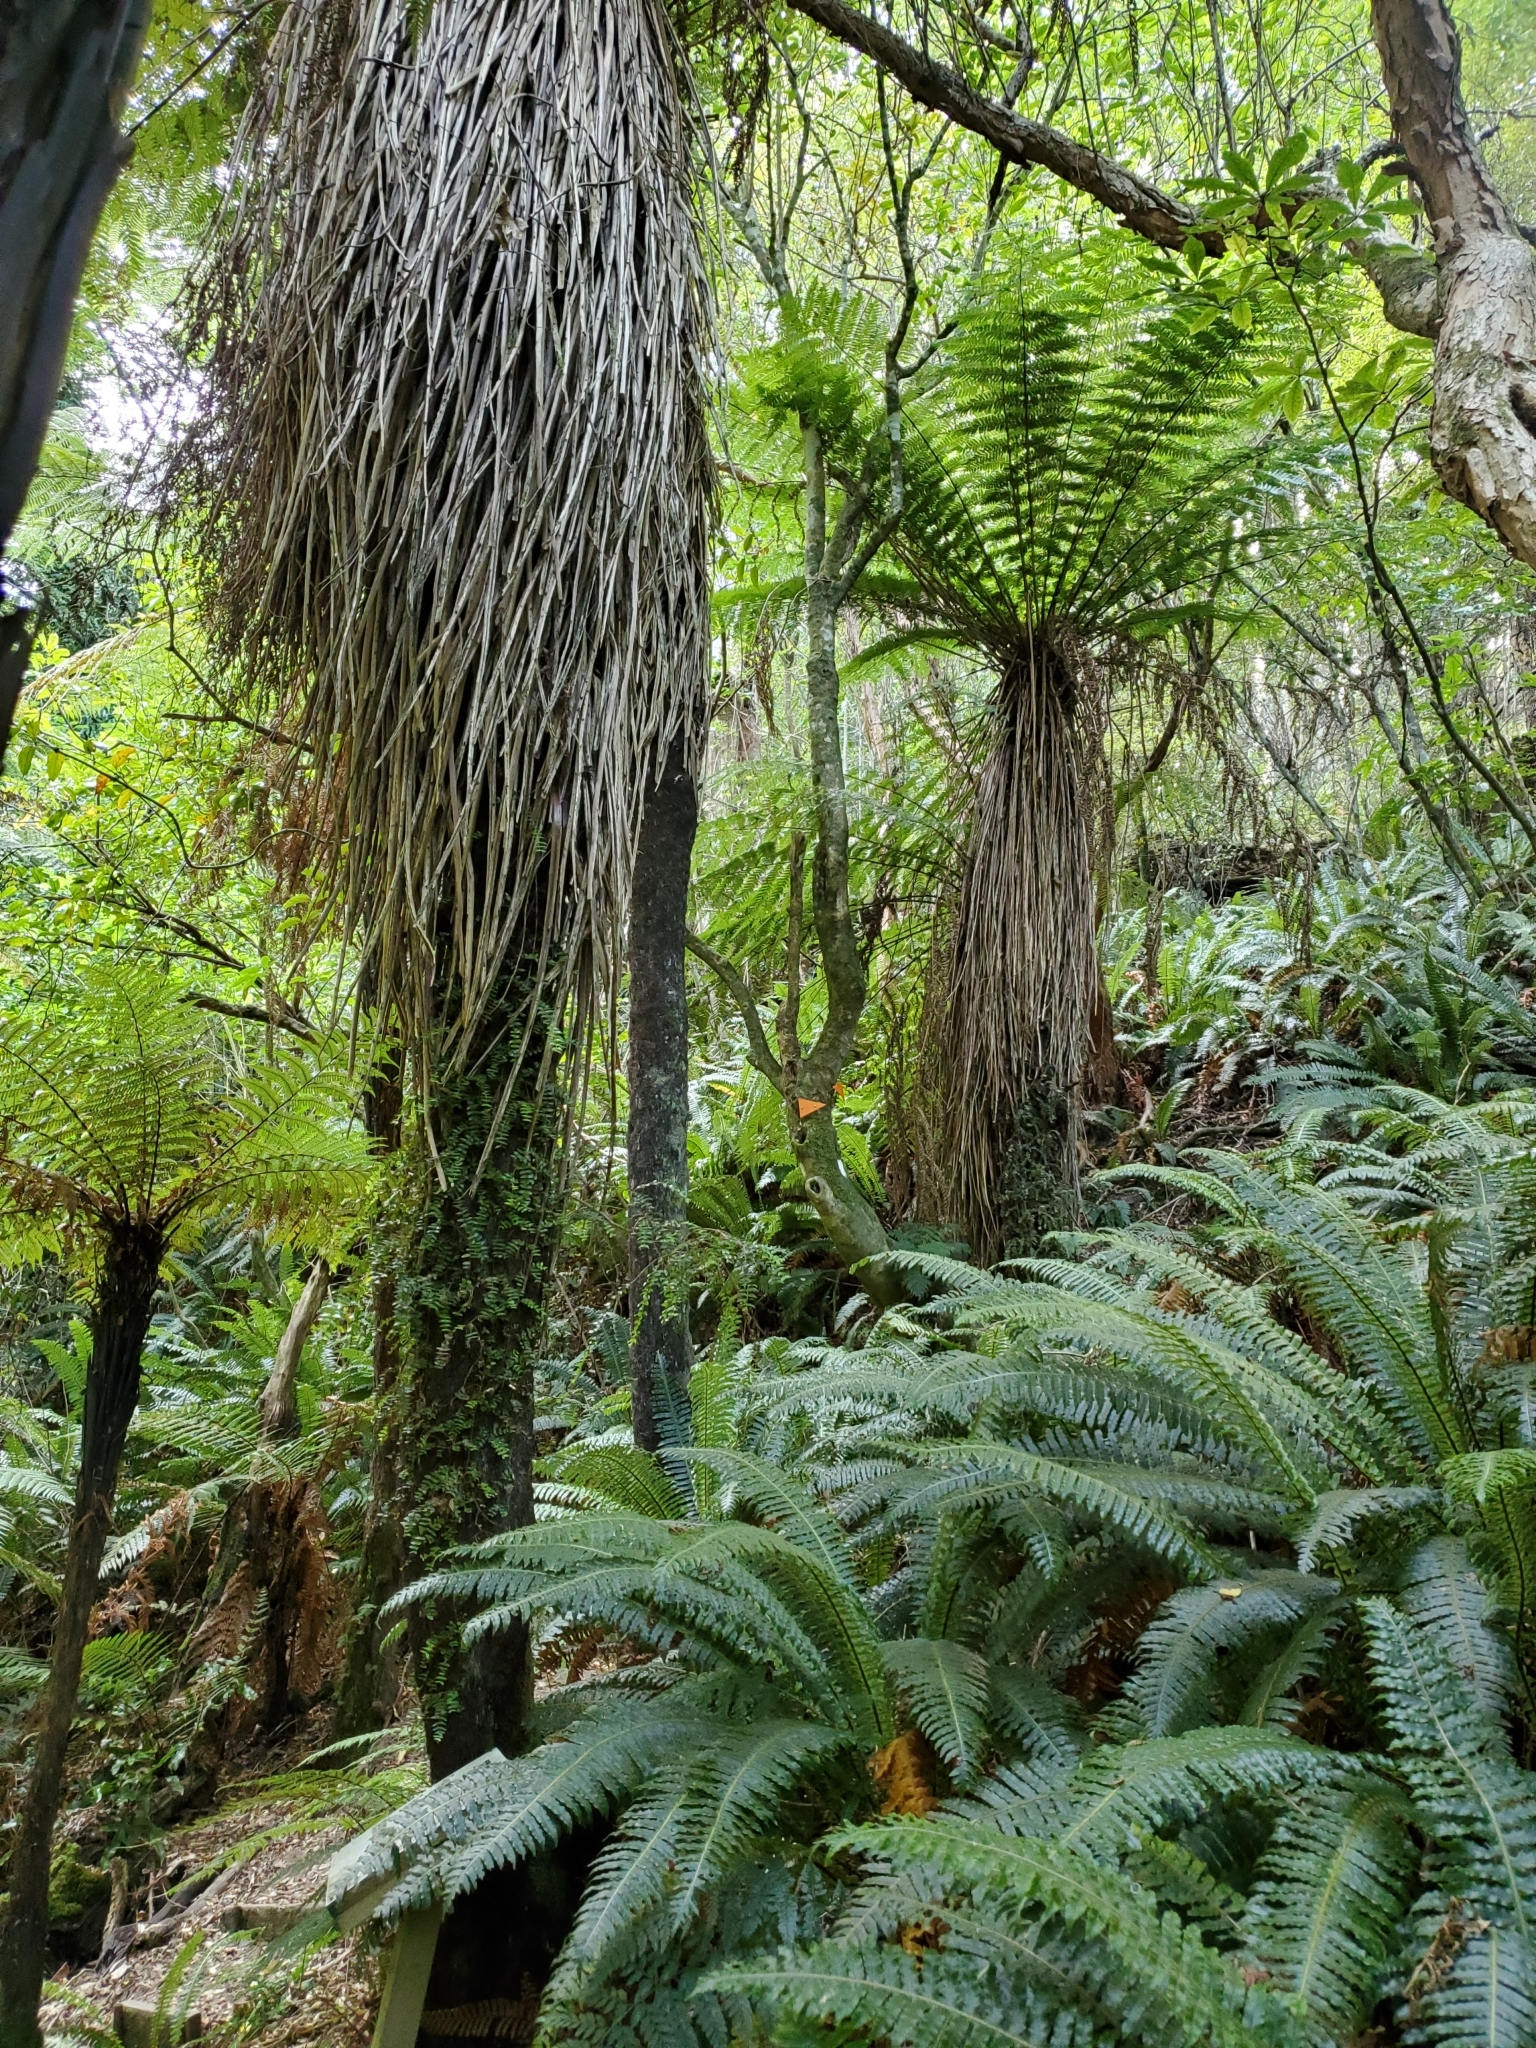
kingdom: Plantae
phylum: Tracheophyta
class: Polypodiopsida
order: Cyatheales
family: Cyatheaceae
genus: Alsophila
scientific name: Alsophila smithii
